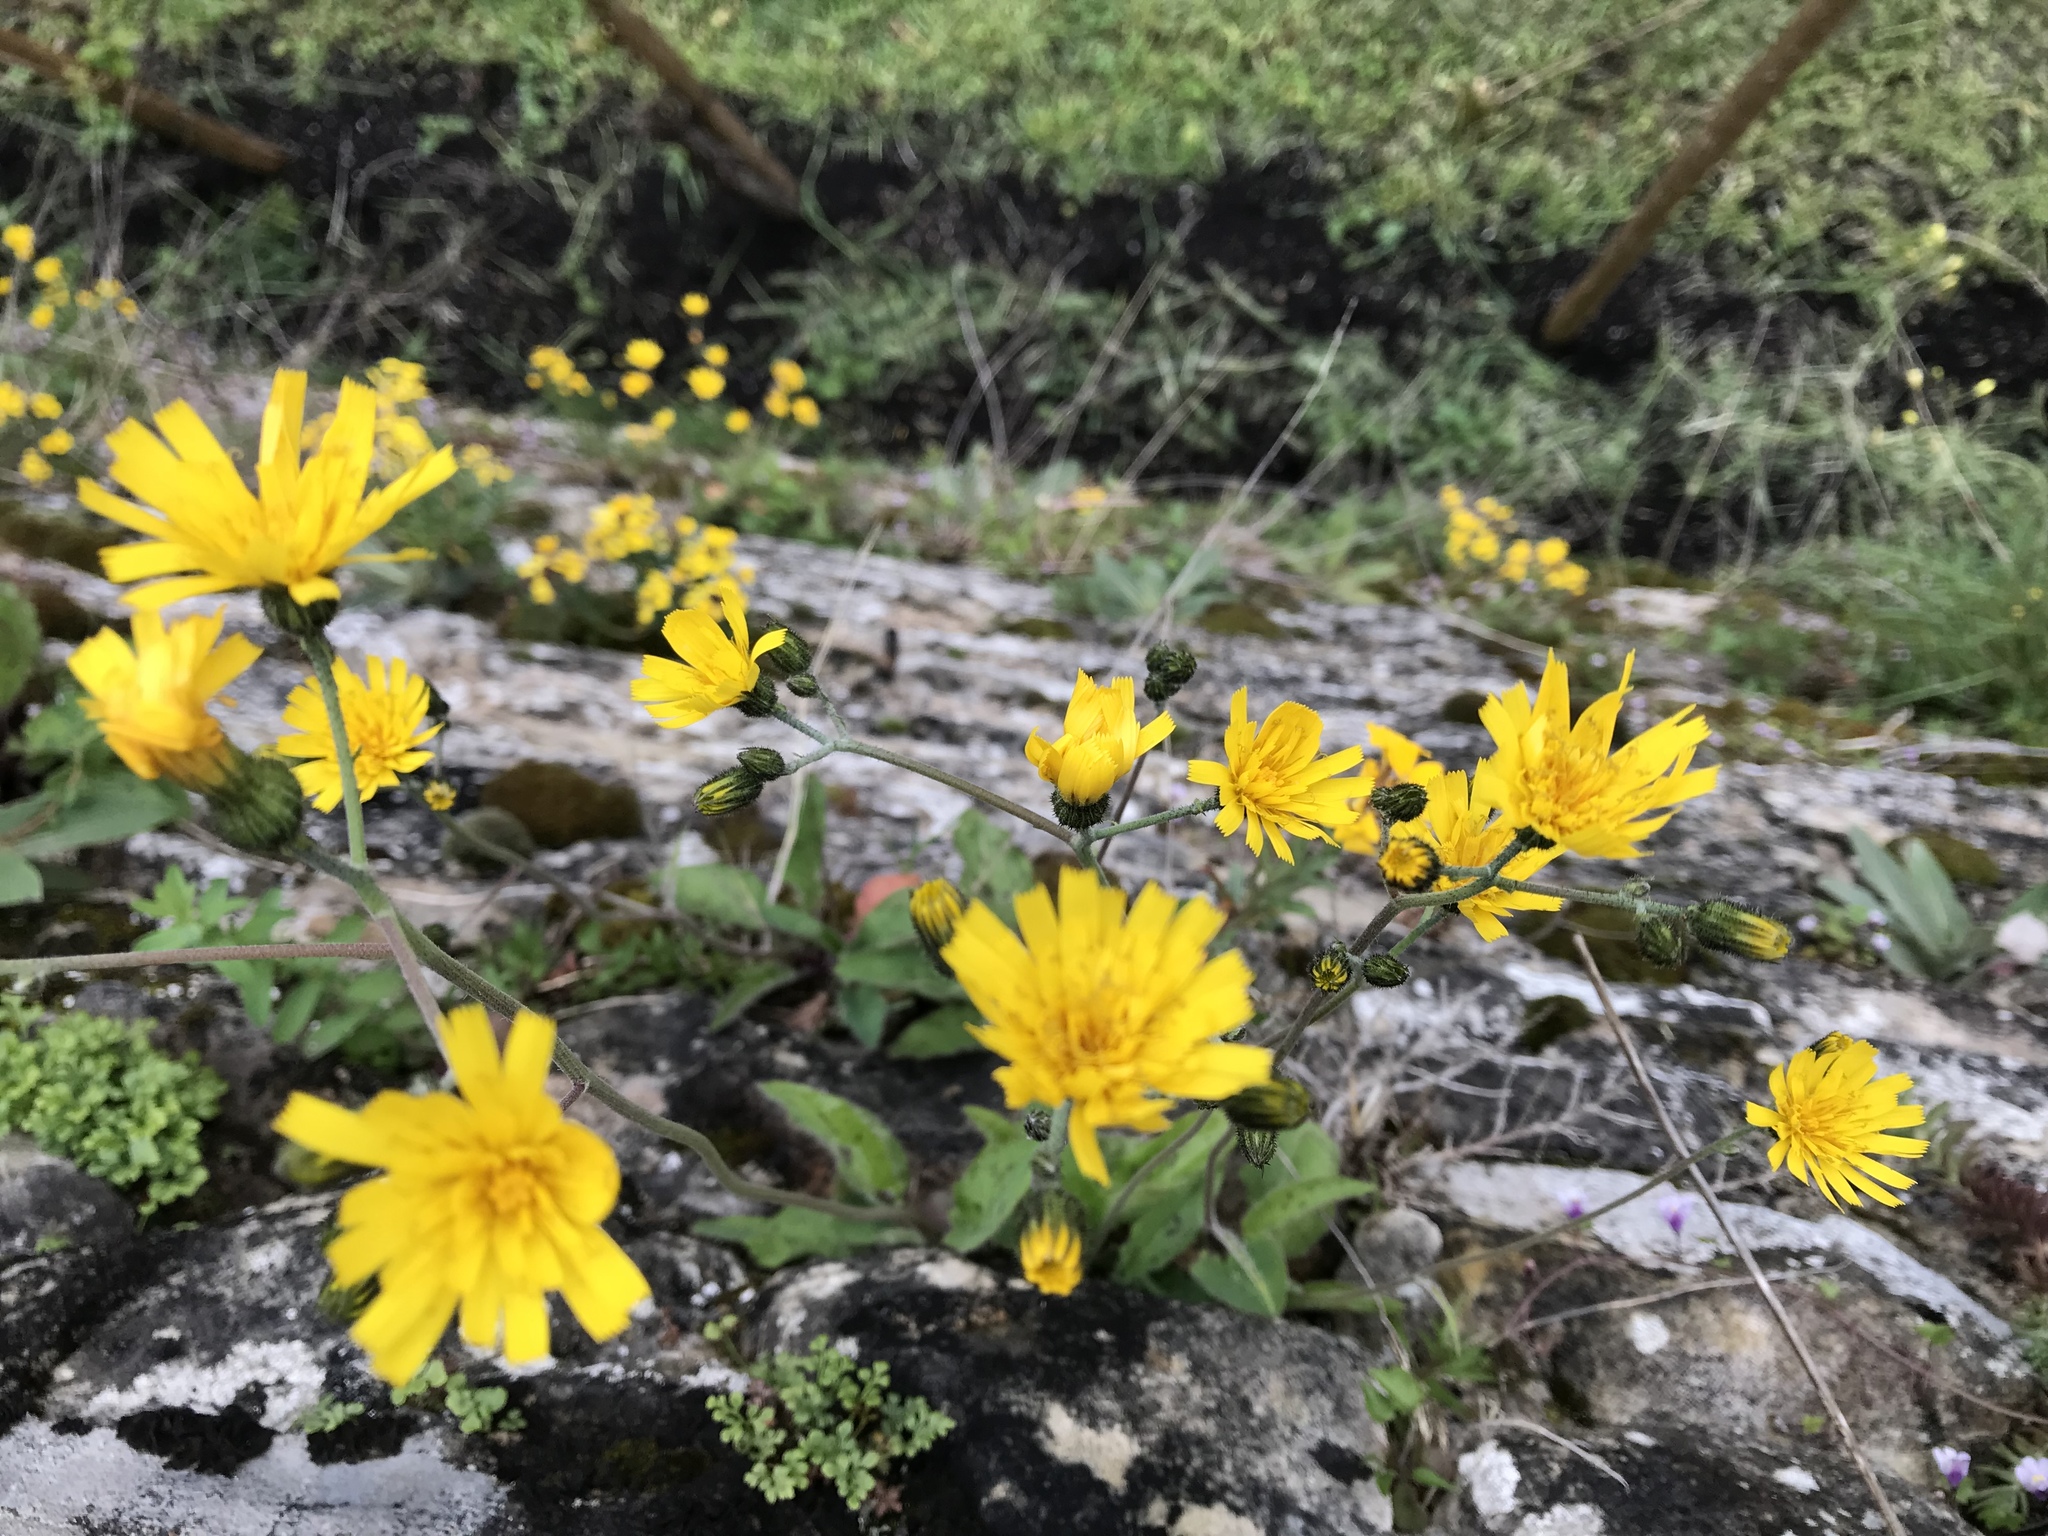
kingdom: Plantae
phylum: Tracheophyta
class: Magnoliopsida
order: Asterales
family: Asteraceae
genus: Pilosella
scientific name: Pilosella officinarum
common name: Mouse-ear hawkweed
